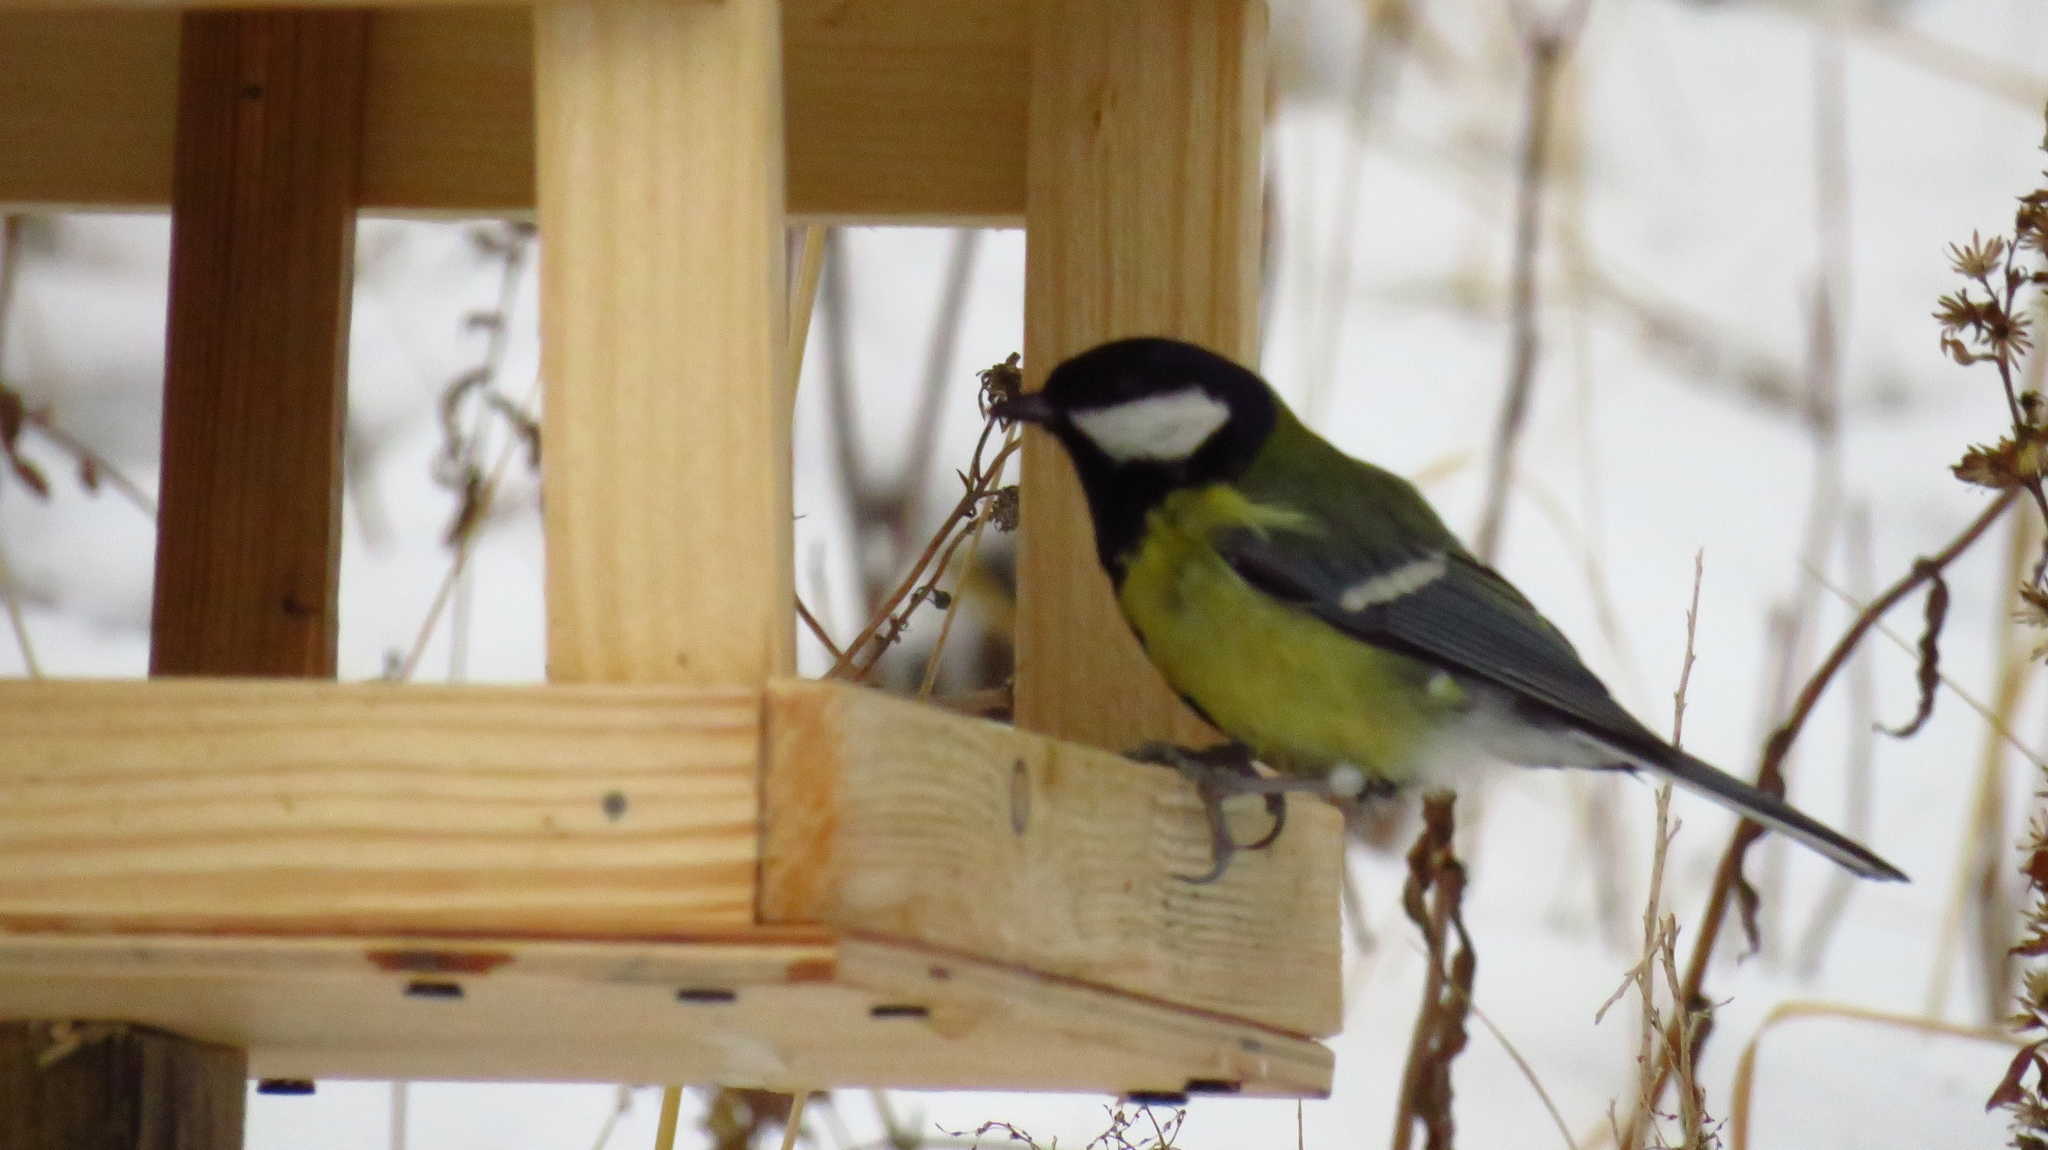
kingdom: Animalia
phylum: Chordata
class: Aves
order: Passeriformes
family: Paridae
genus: Parus
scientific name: Parus major
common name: Great tit
